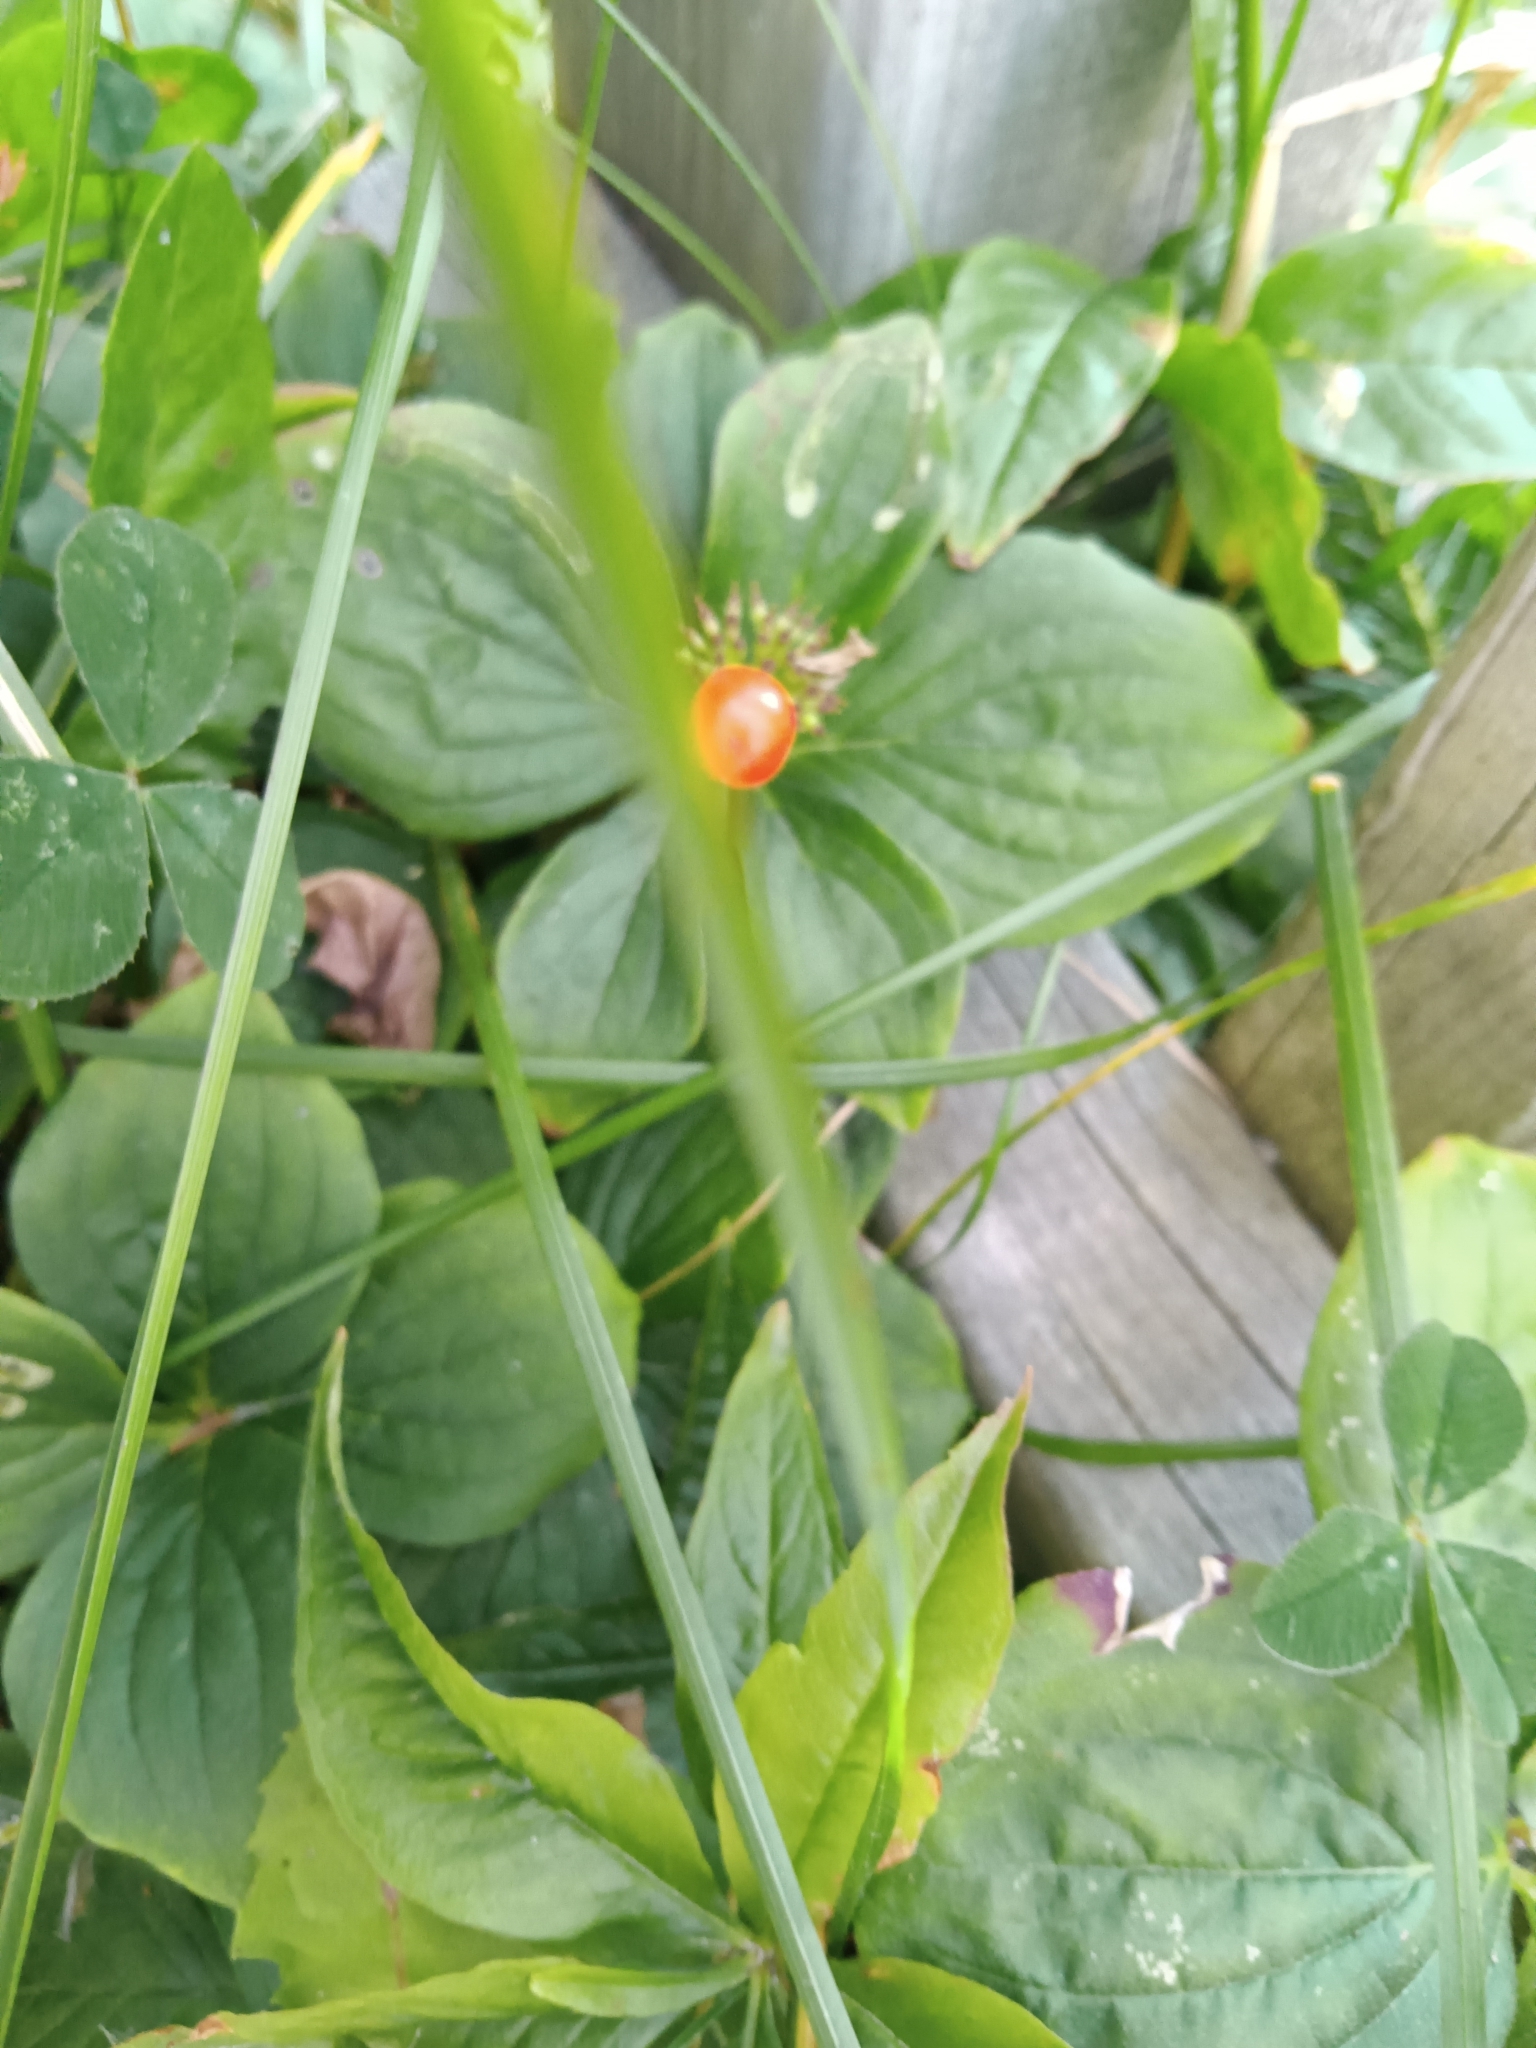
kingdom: Plantae
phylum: Tracheophyta
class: Magnoliopsida
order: Cornales
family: Cornaceae
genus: Cornus
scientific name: Cornus canadensis
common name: Creeping dogwood
